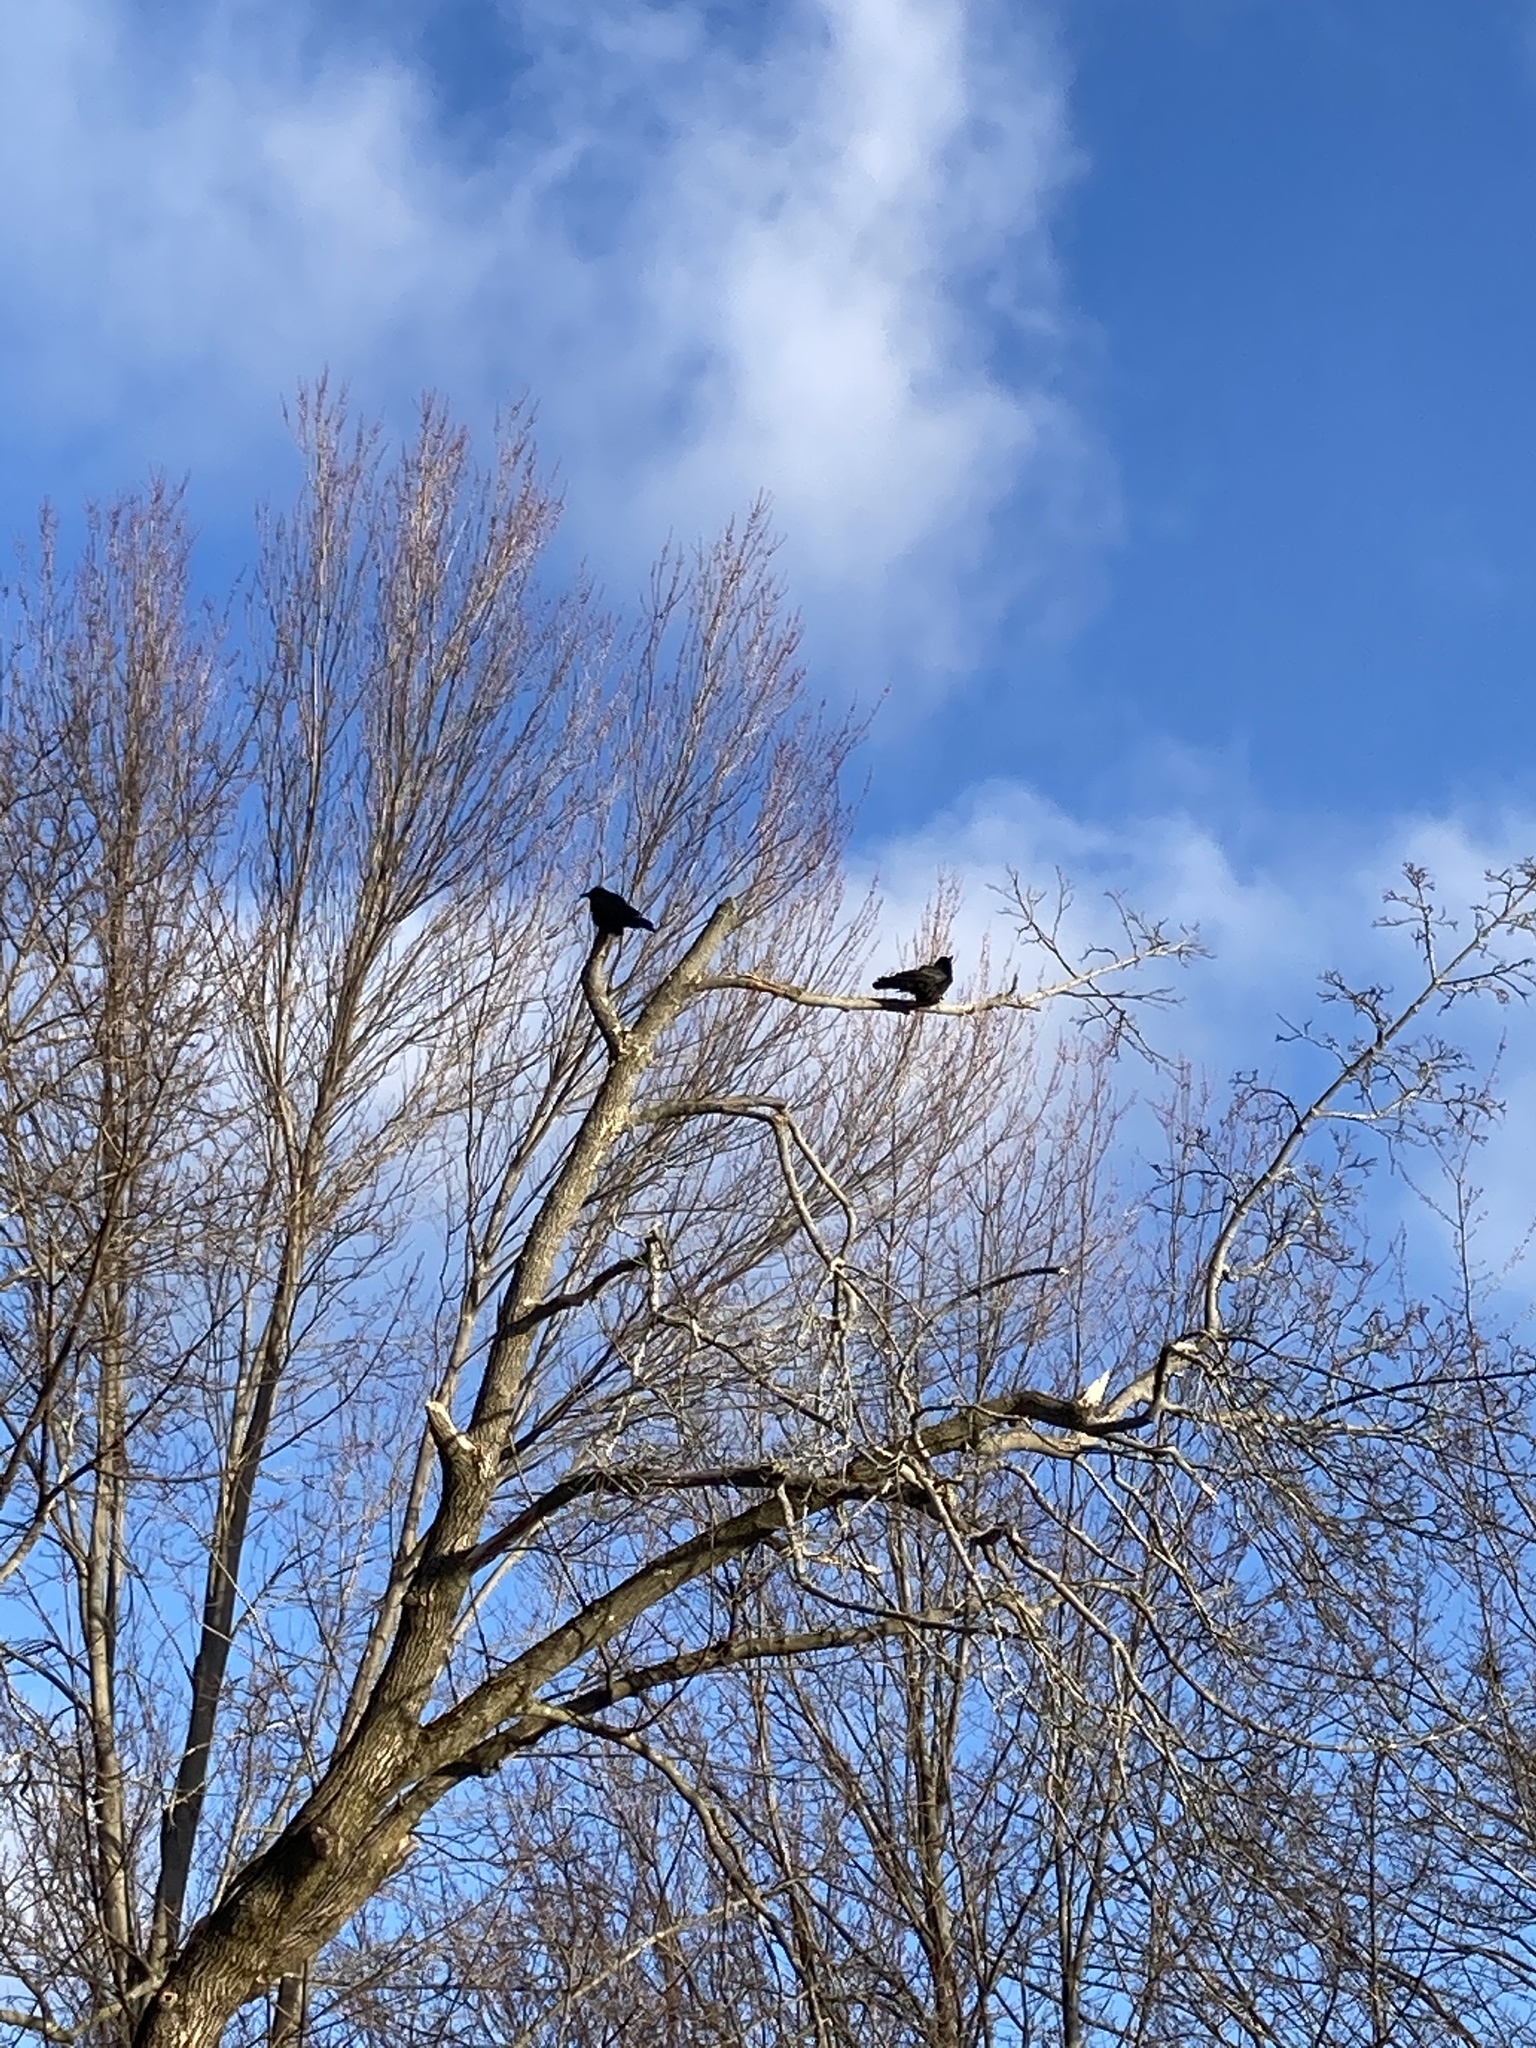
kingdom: Animalia
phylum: Chordata
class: Aves
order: Passeriformes
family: Corvidae
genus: Corvus
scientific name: Corvus brachyrhynchos
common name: American crow
